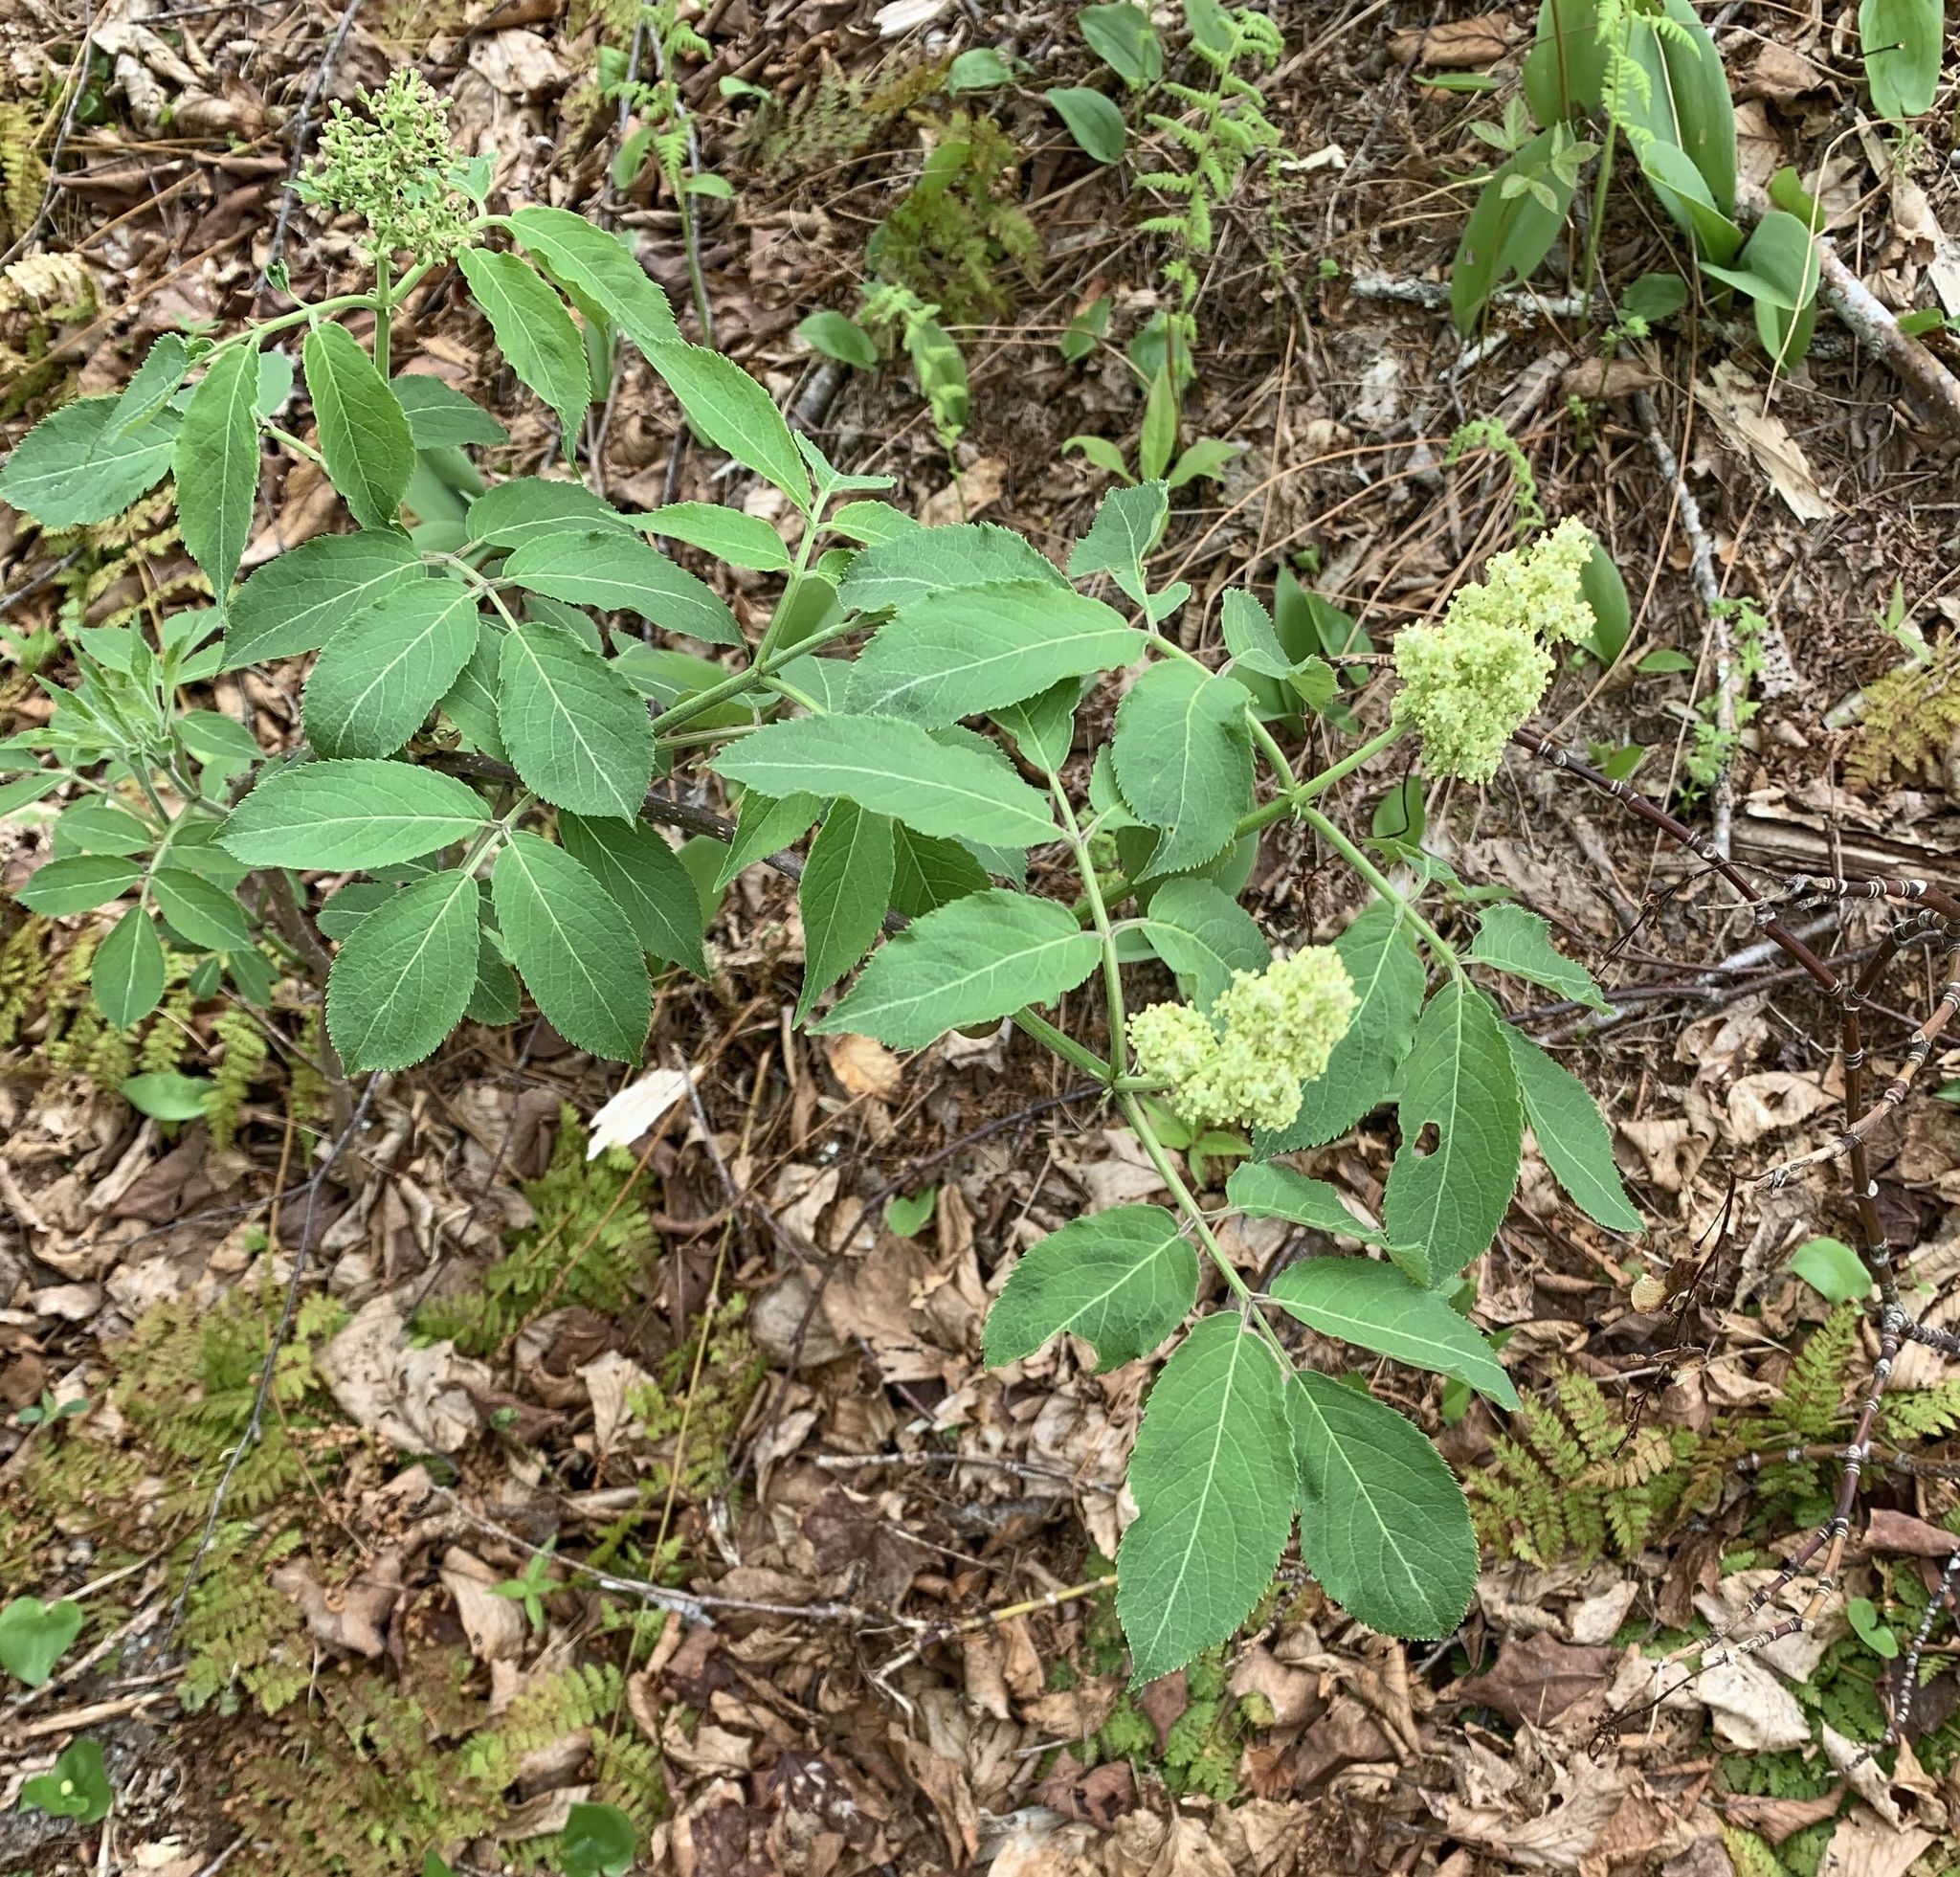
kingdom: Plantae
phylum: Tracheophyta
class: Magnoliopsida
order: Dipsacales
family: Viburnaceae
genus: Sambucus
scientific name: Sambucus racemosa
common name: Red-berried elder
